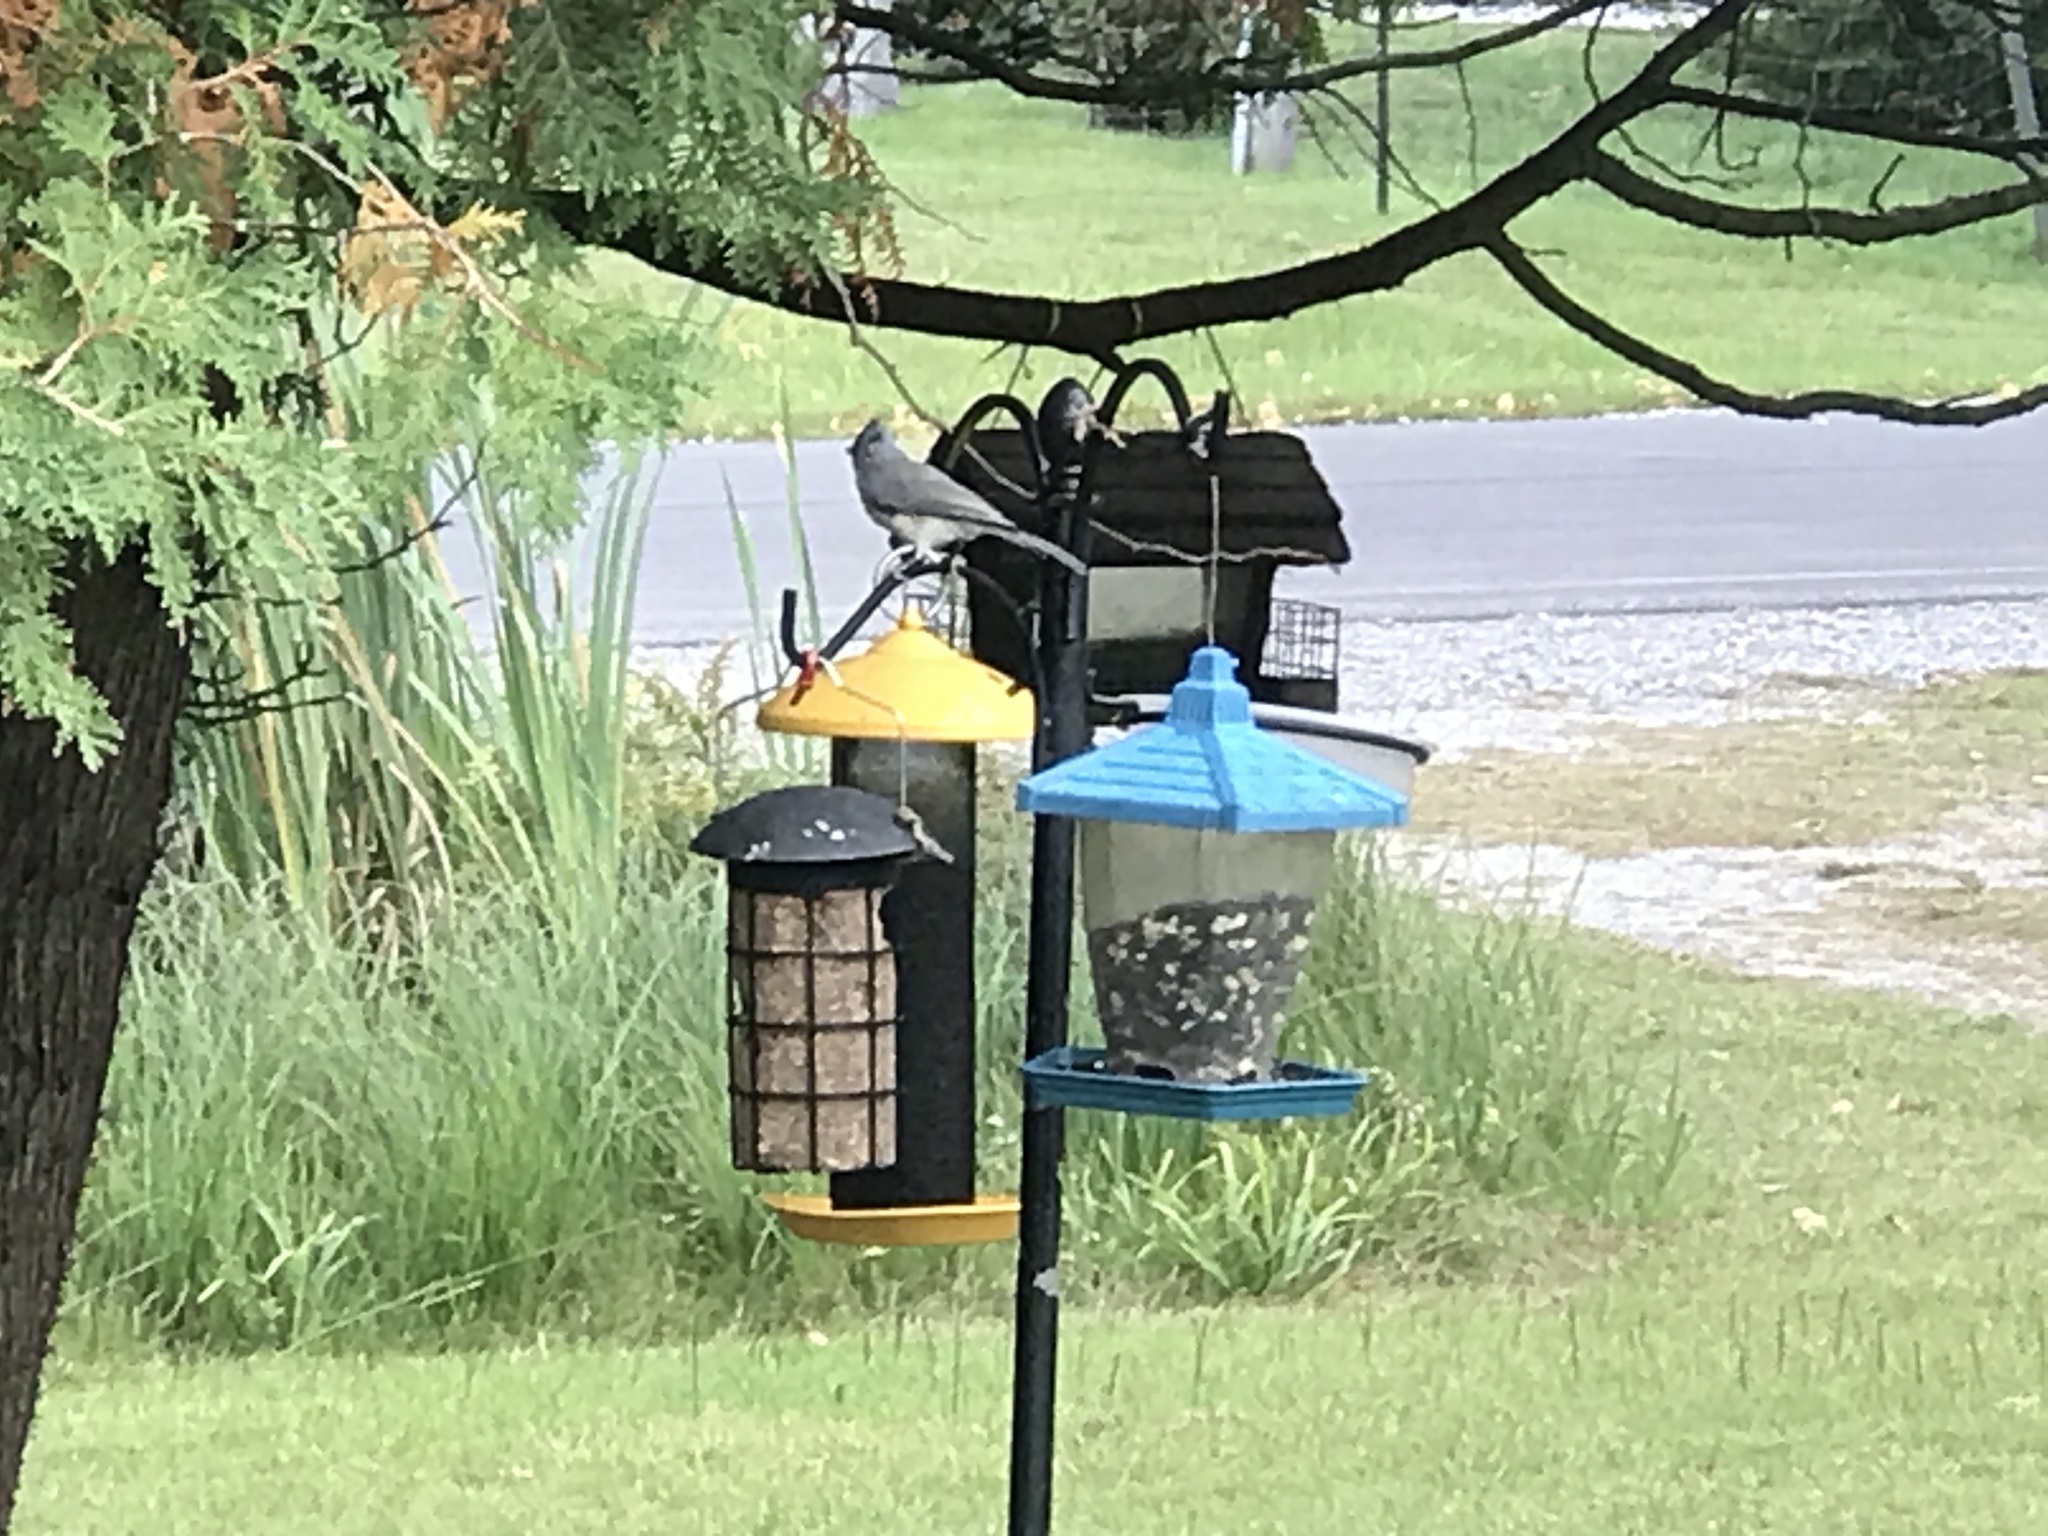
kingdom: Animalia
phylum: Chordata
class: Aves
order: Passeriformes
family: Paridae
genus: Baeolophus
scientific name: Baeolophus bicolor
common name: Tufted titmouse
